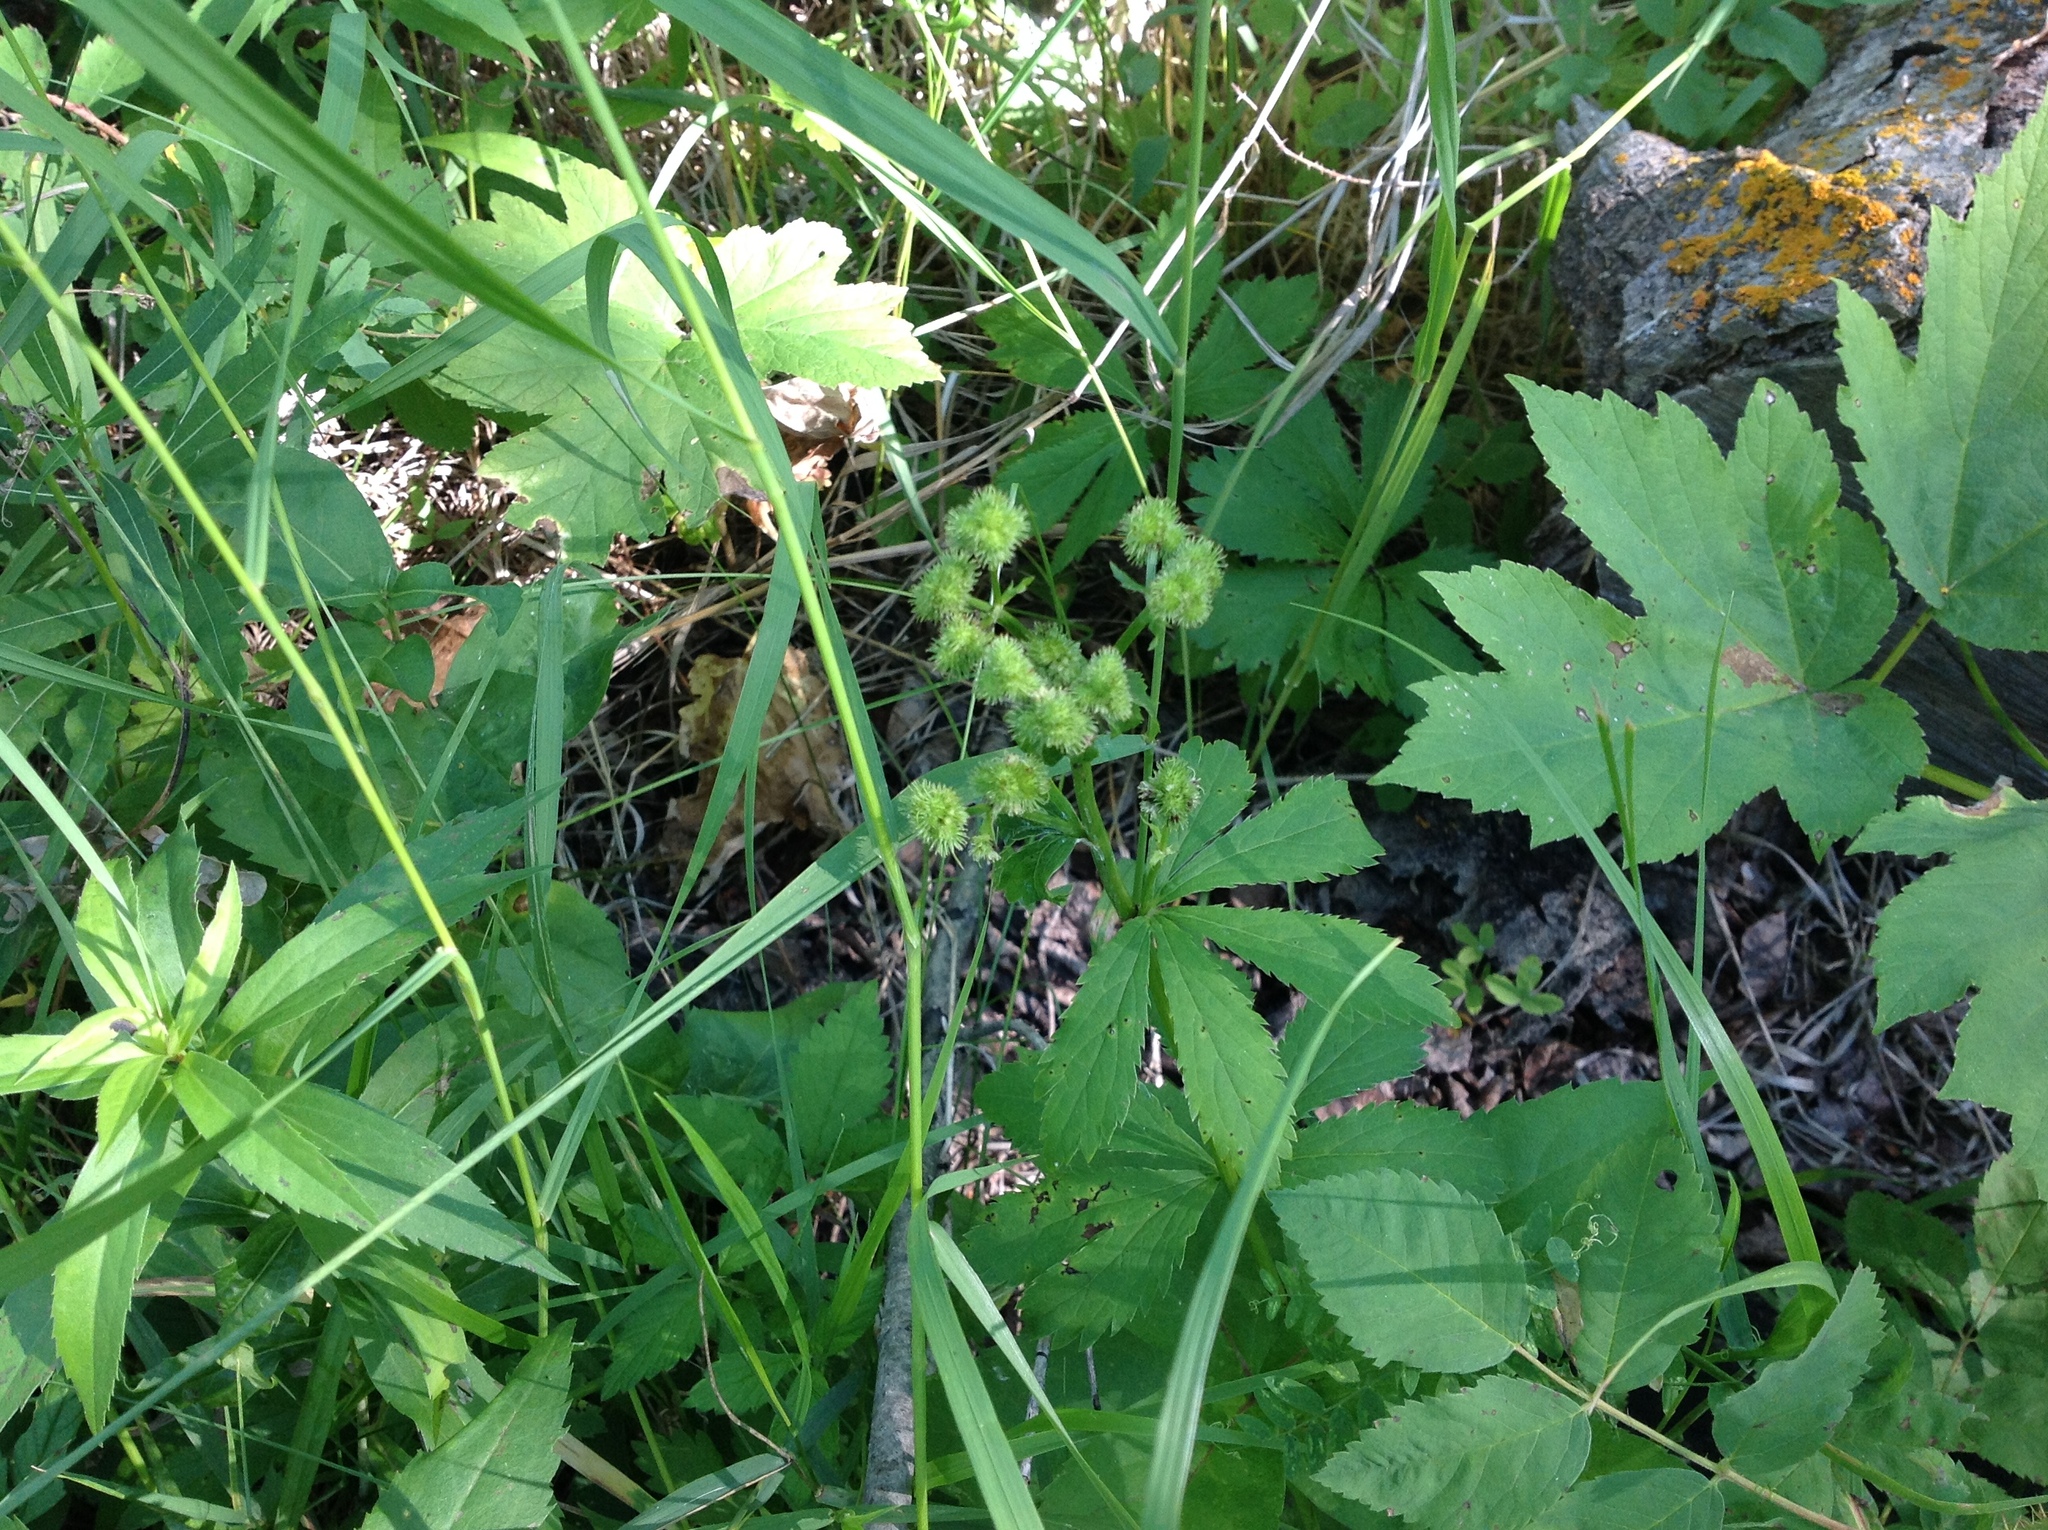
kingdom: Plantae
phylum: Tracheophyta
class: Magnoliopsida
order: Apiales
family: Apiaceae
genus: Sanicula
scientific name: Sanicula marilandica
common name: Black snakeroot
